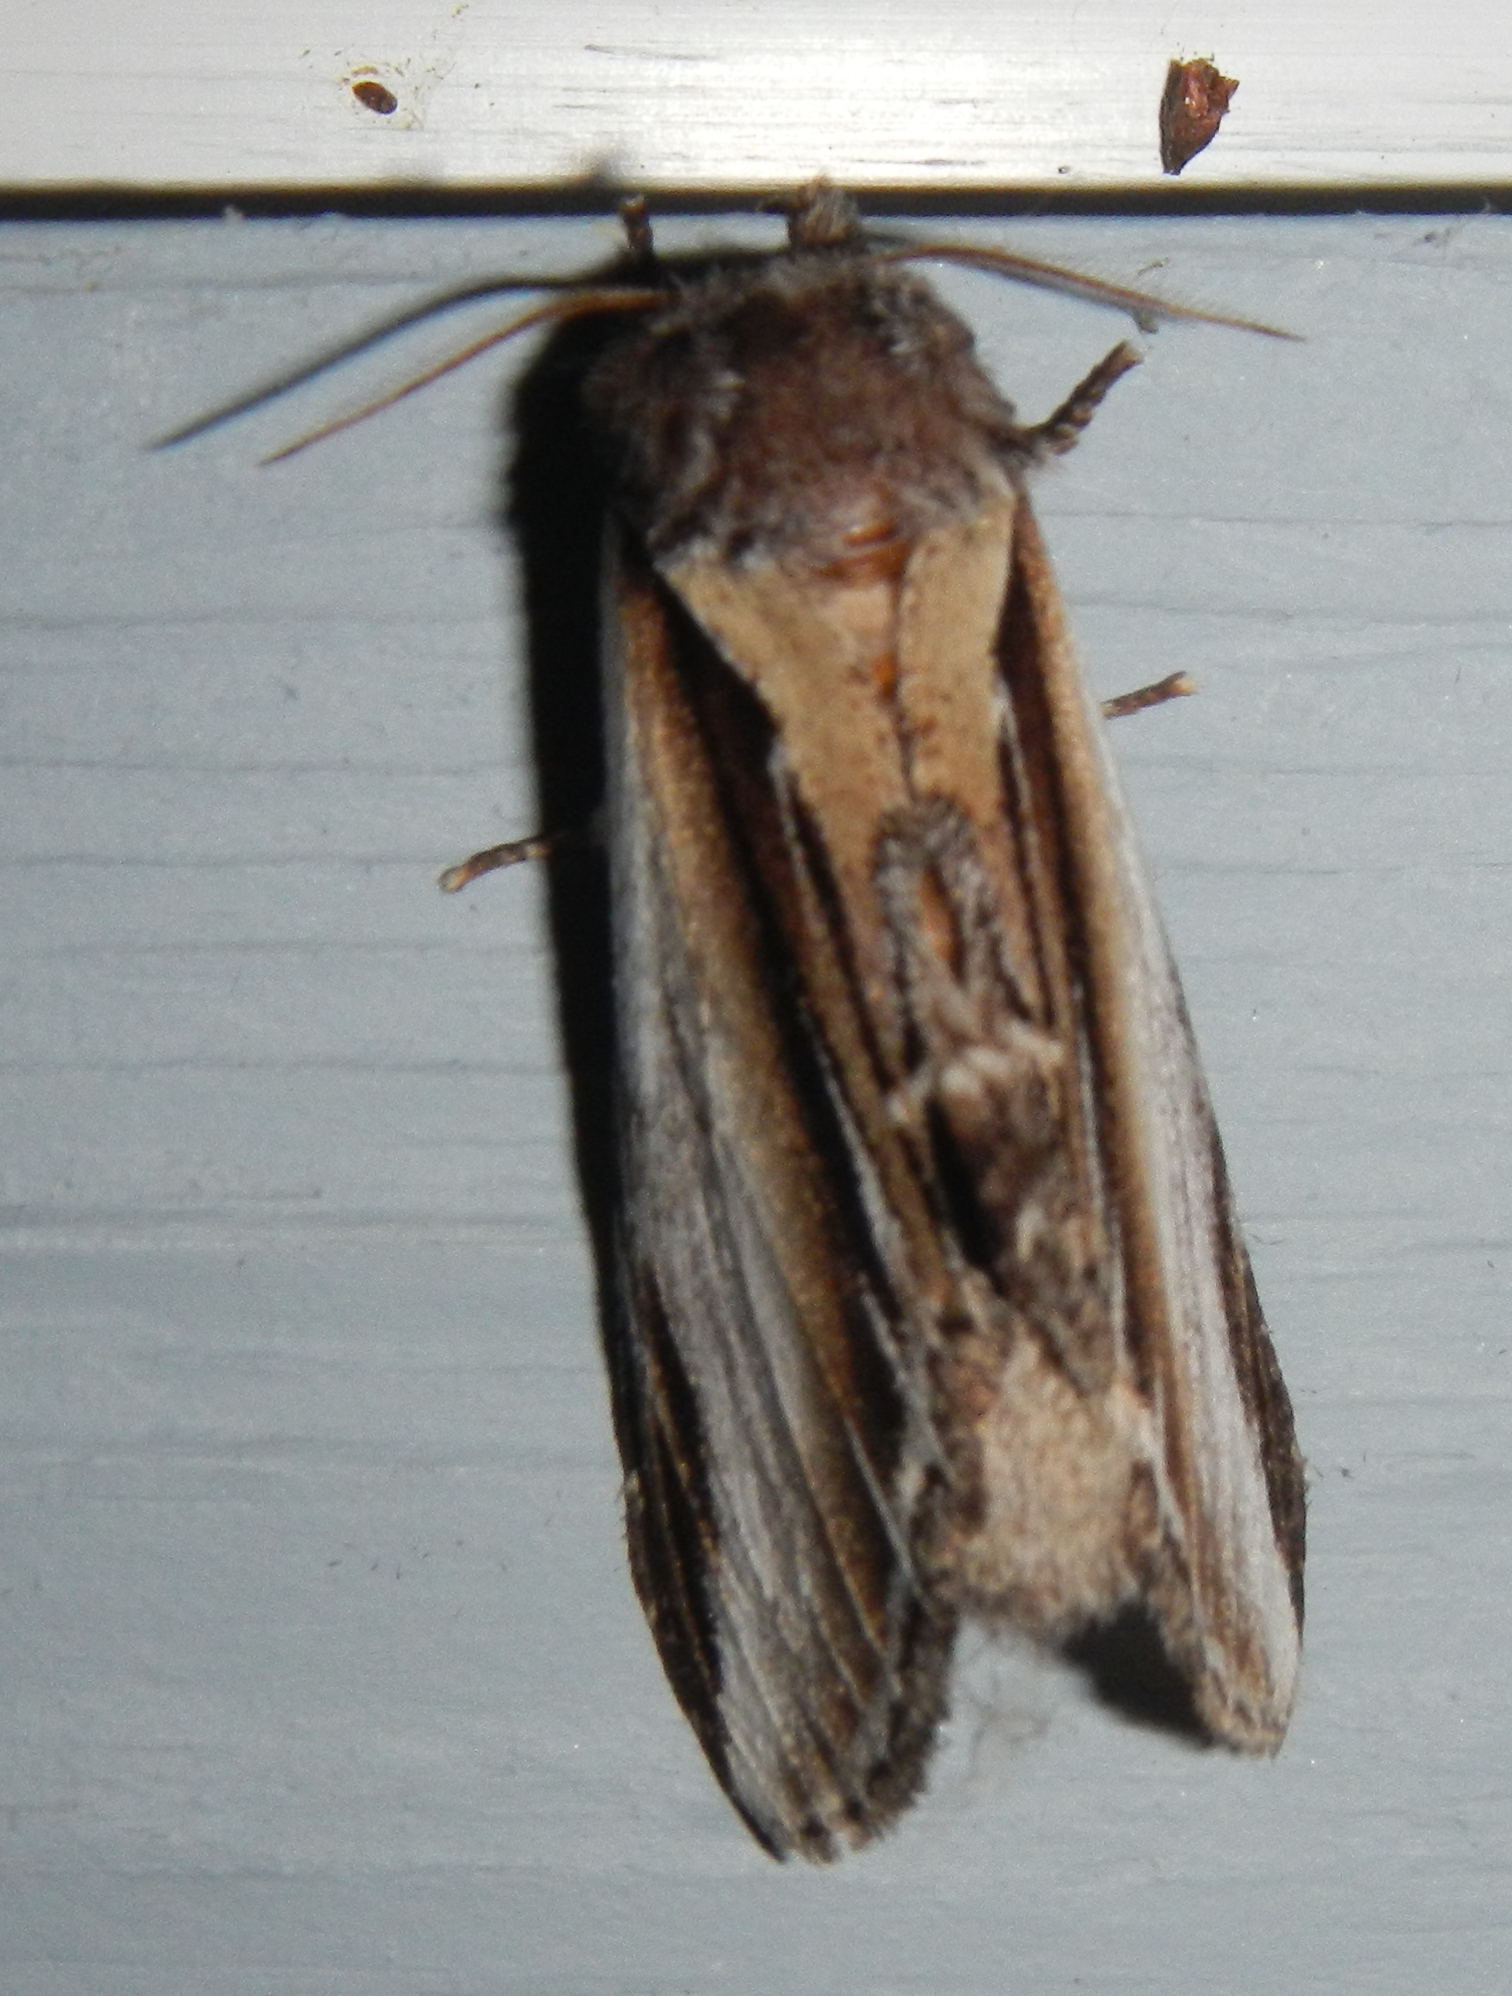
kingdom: Animalia
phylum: Arthropoda
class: Insecta
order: Lepidoptera
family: Notodontidae
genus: Pheosia
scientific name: Pheosia rimosa
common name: Black-rimmed prominent
